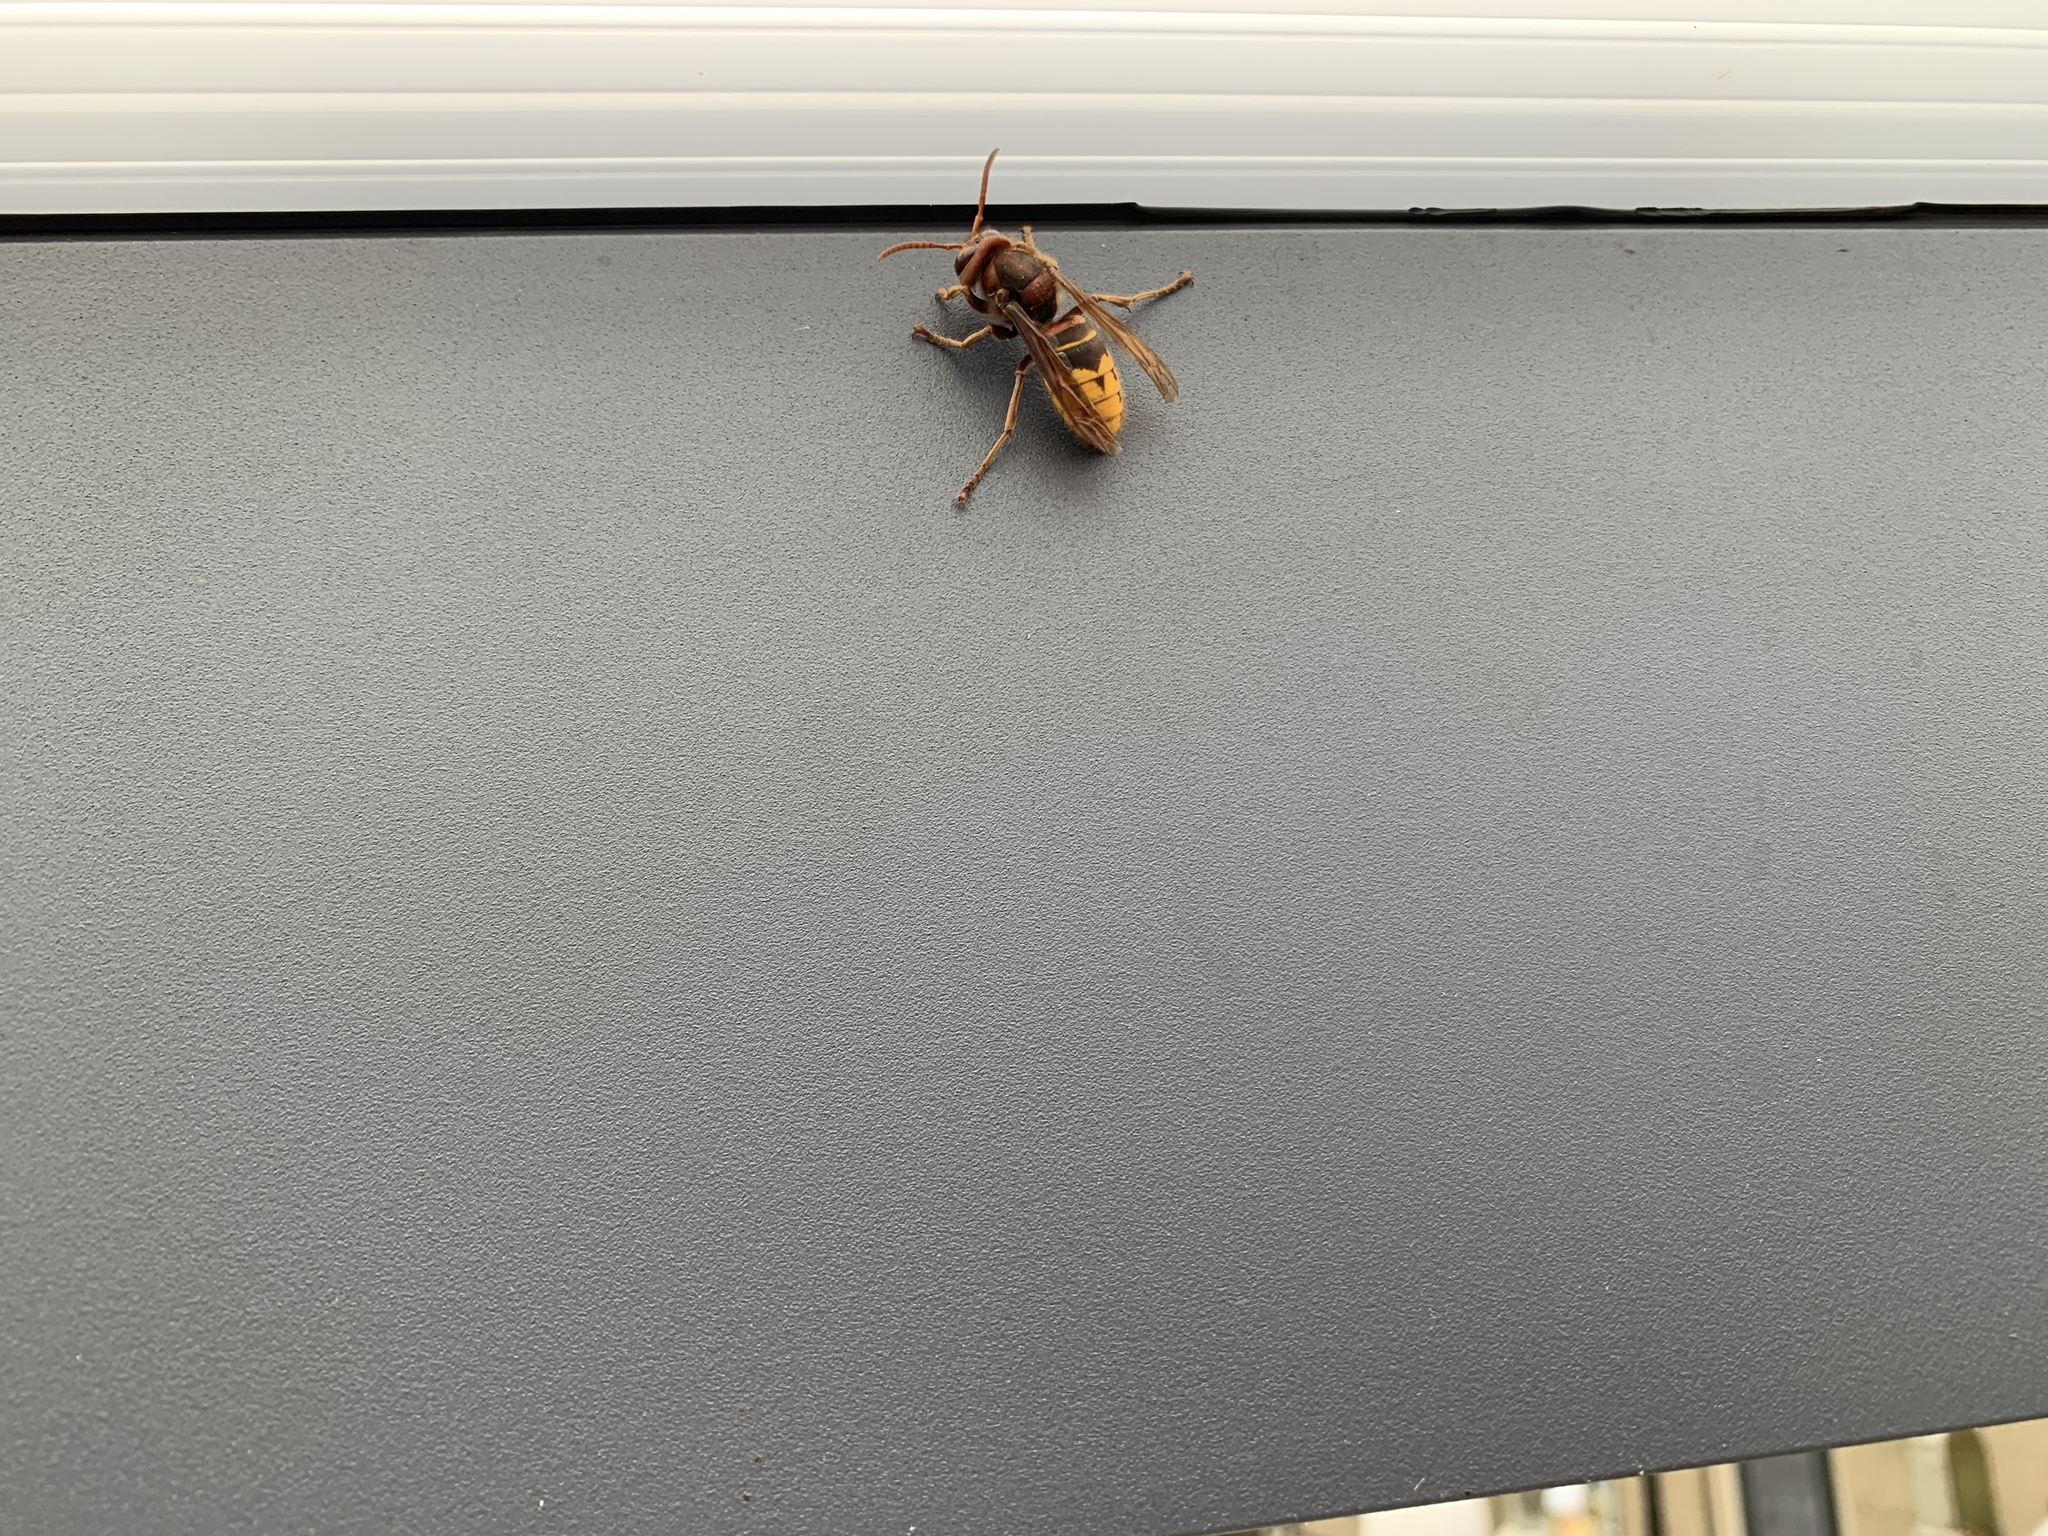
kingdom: Animalia
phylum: Arthropoda
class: Insecta
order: Hymenoptera
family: Vespidae
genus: Vespa
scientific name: Vespa crabro
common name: Hornet
